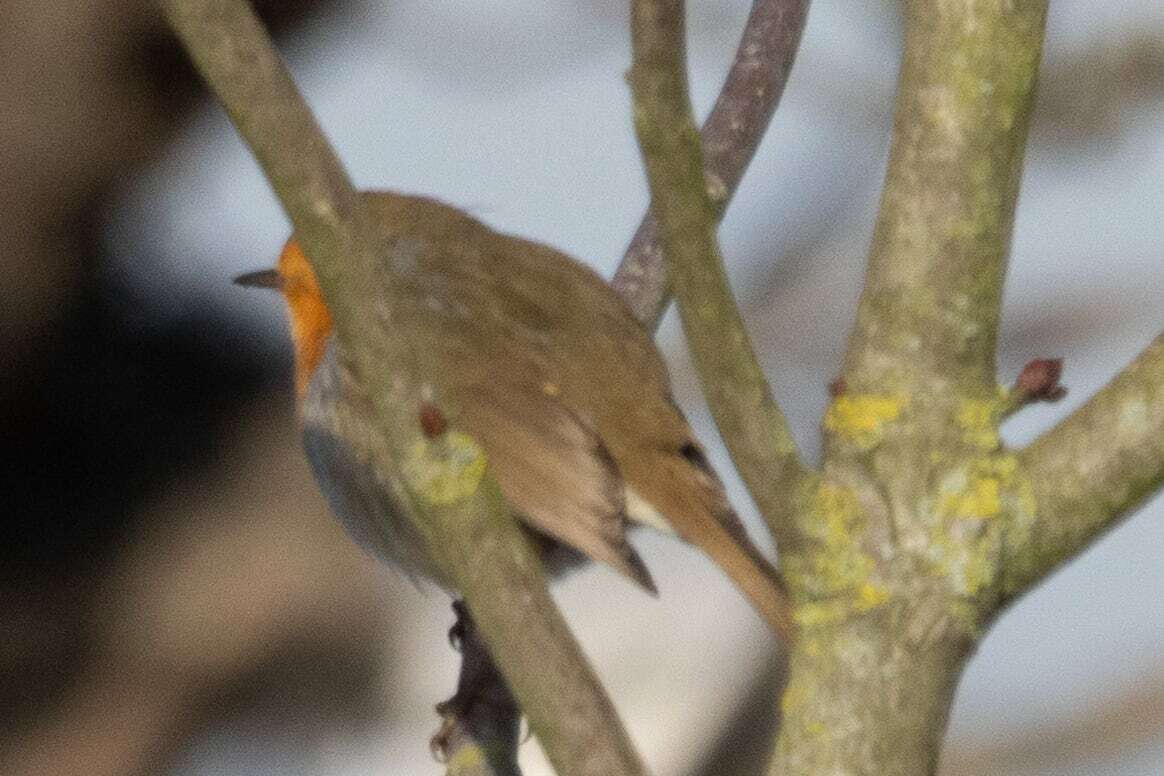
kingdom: Animalia
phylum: Chordata
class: Aves
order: Passeriformes
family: Muscicapidae
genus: Erithacus
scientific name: Erithacus rubecula
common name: European robin
